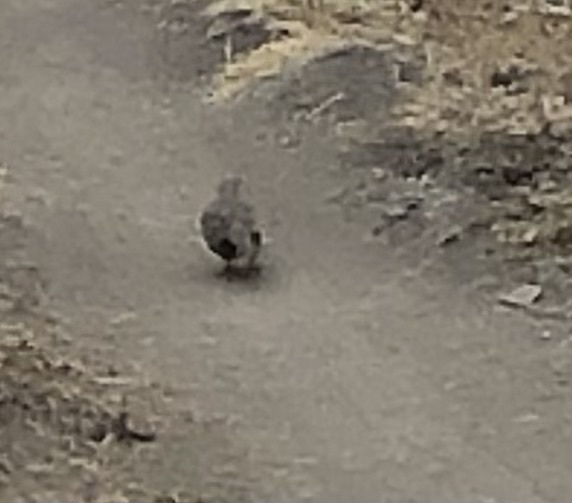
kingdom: Animalia
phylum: Chordata
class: Aves
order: Columbiformes
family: Columbidae
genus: Zenaida
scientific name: Zenaida macroura
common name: Mourning dove
